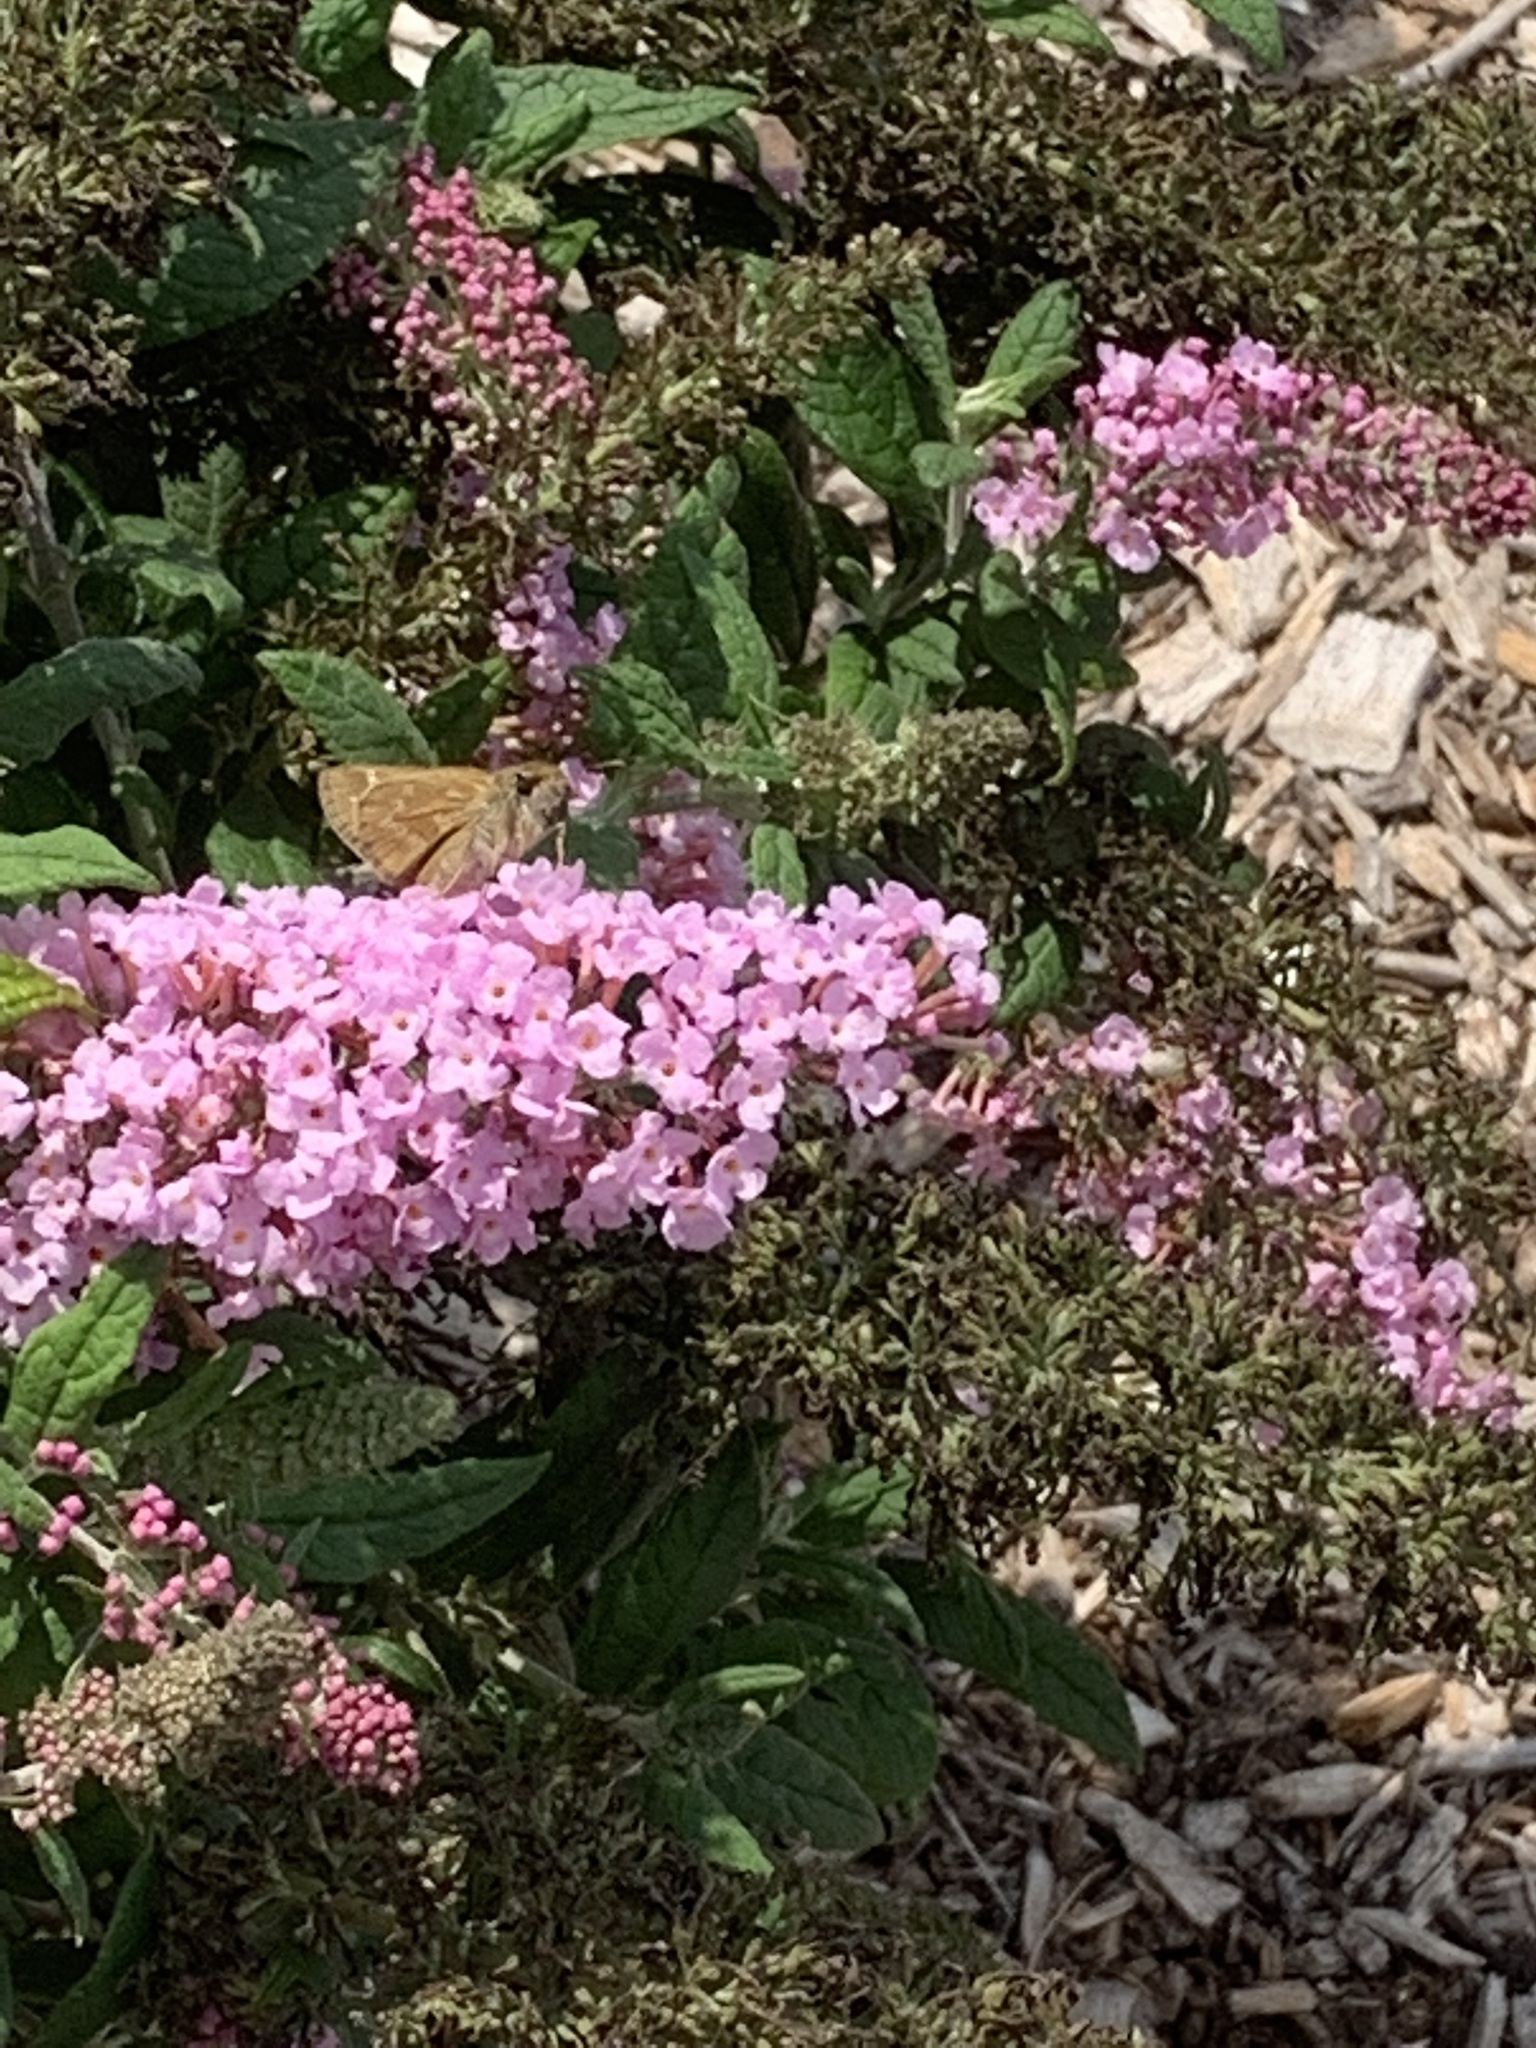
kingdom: Animalia
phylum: Arthropoda
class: Insecta
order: Lepidoptera
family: Hesperiidae
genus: Atalopedes
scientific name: Atalopedes
